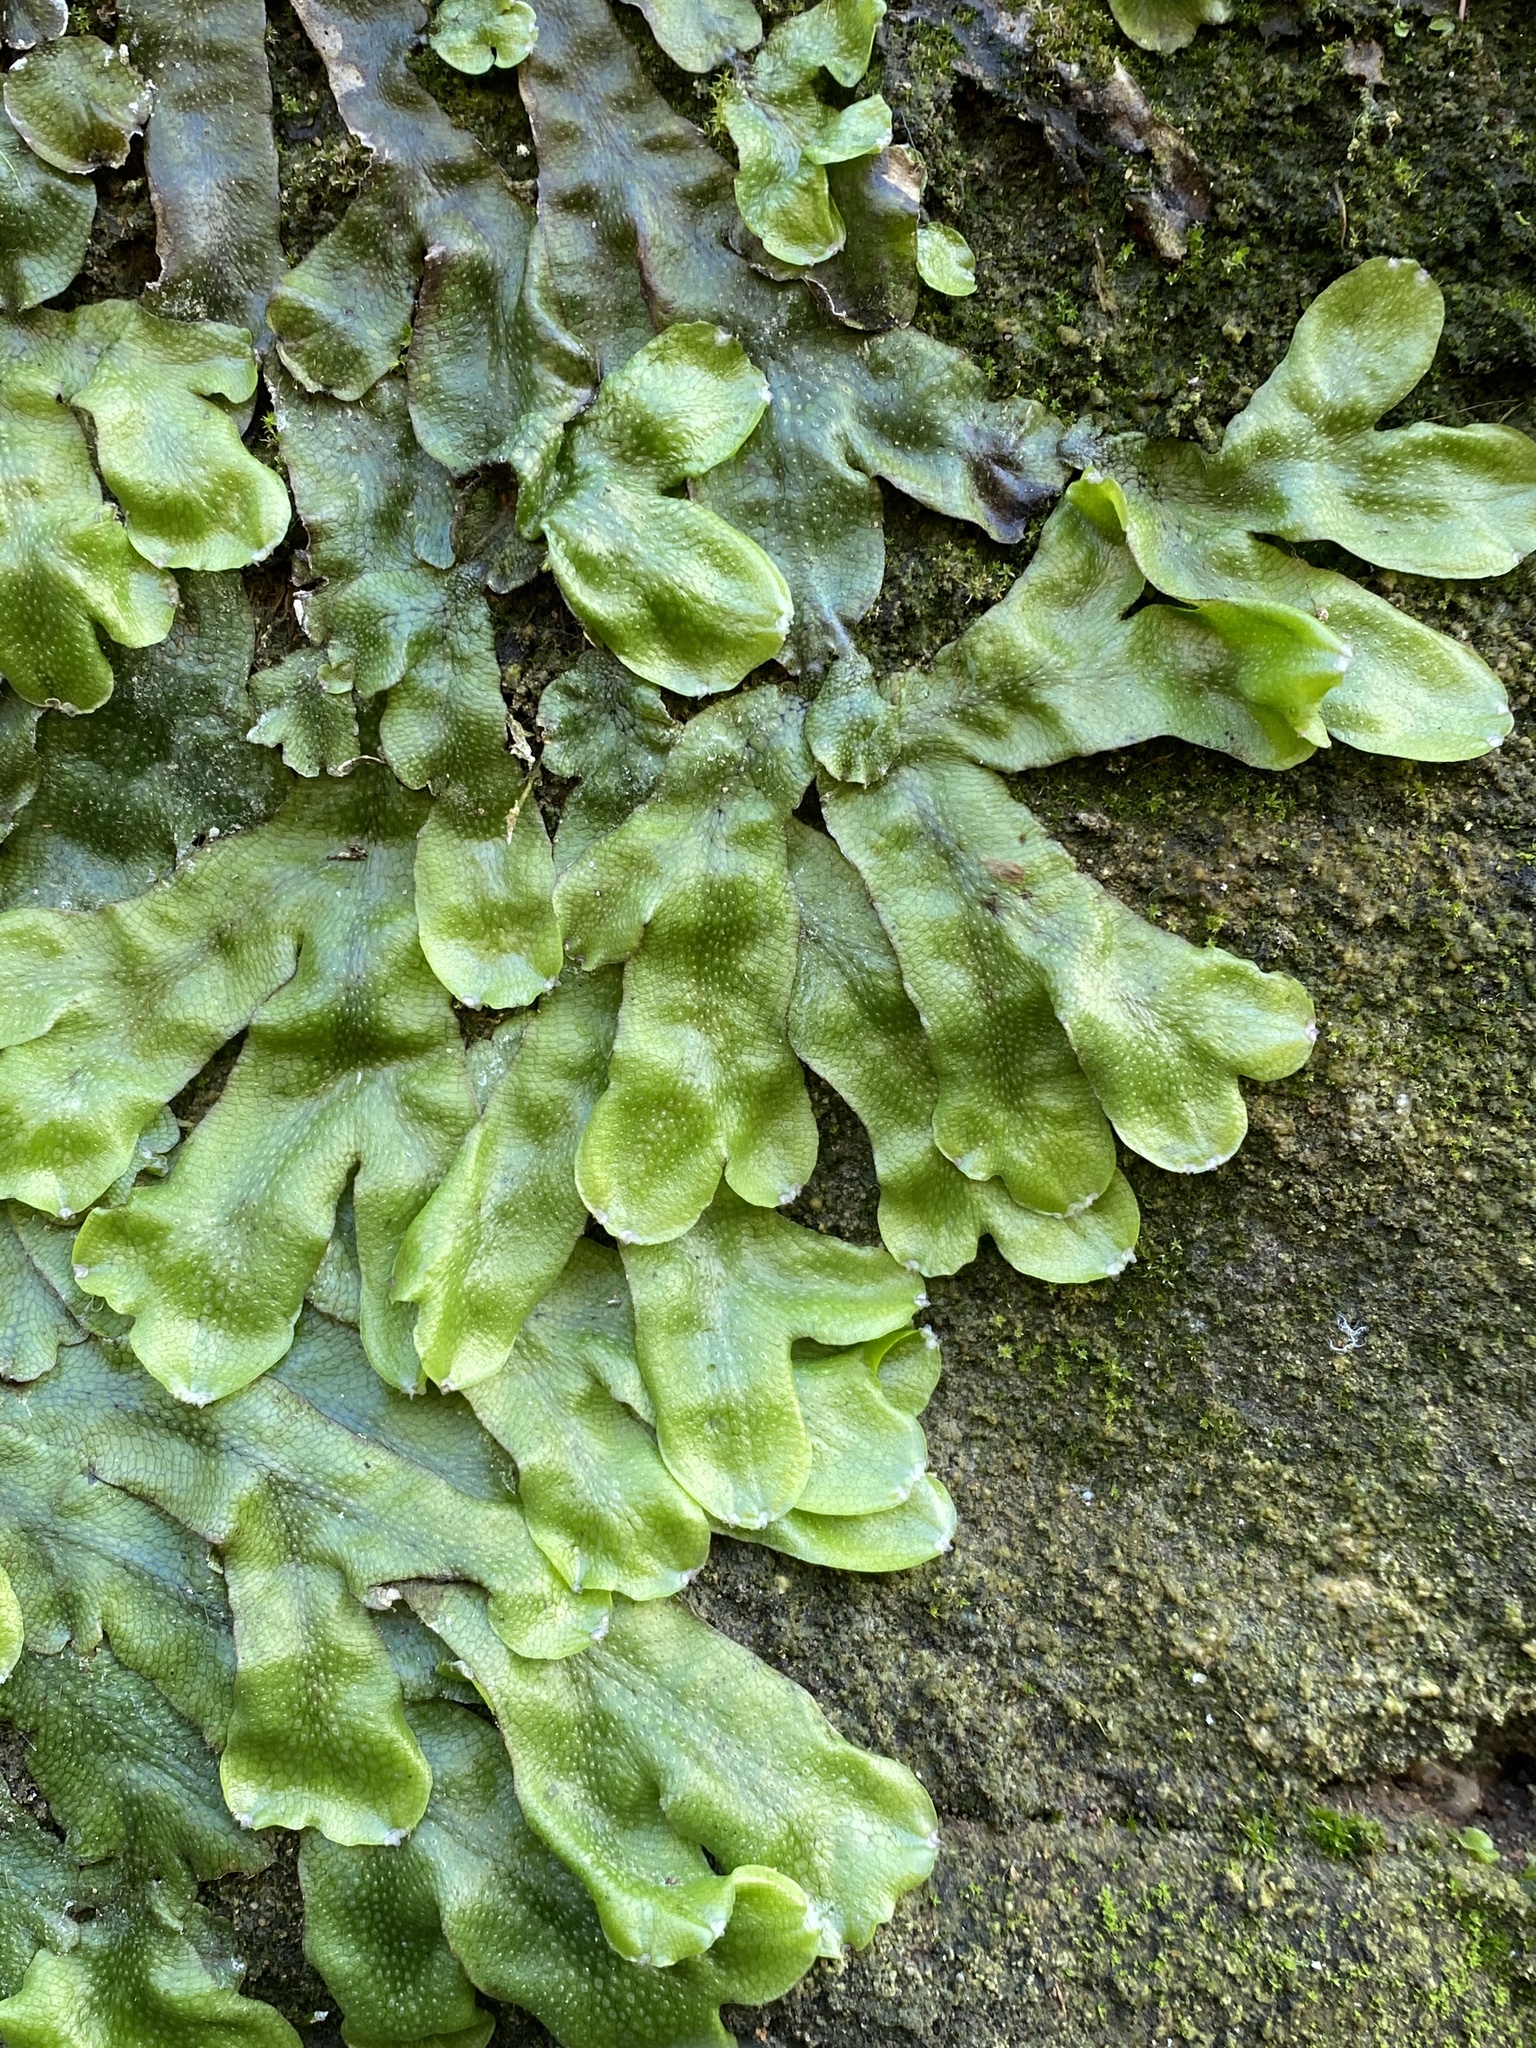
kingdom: Plantae
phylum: Marchantiophyta
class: Marchantiopsida
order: Marchantiales
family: Conocephalaceae
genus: Conocephalum
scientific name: Conocephalum conicum
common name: Great scented liverwort
